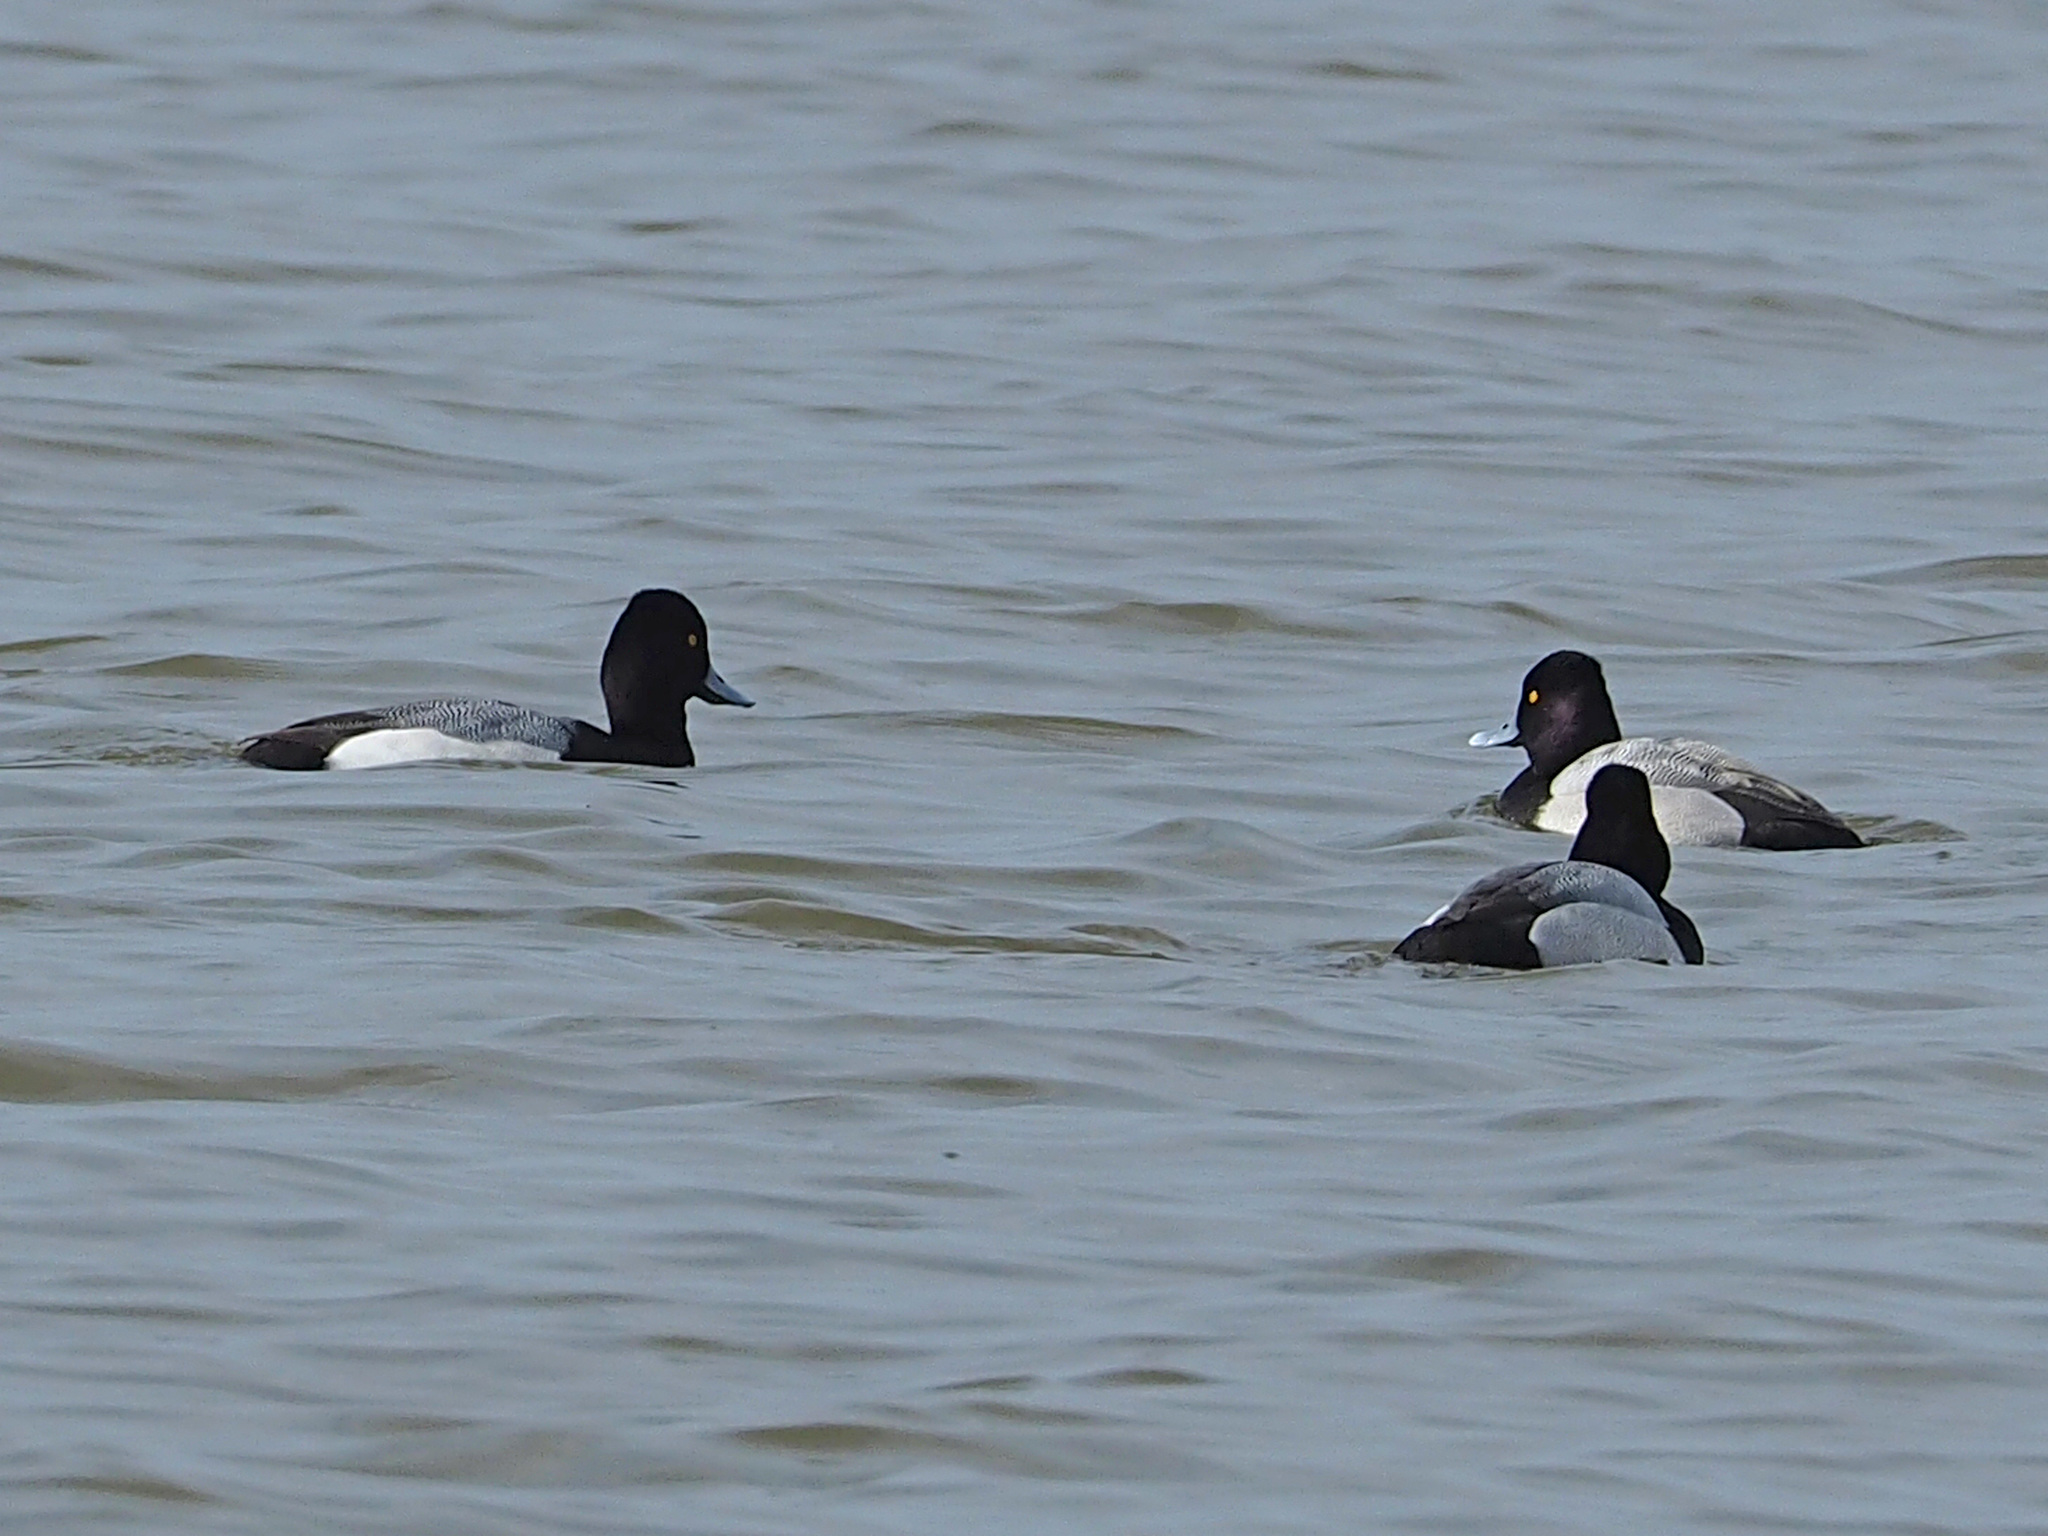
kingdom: Animalia
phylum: Chordata
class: Aves
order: Anseriformes
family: Anatidae
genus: Aythya
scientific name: Aythya affinis
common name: Lesser scaup
